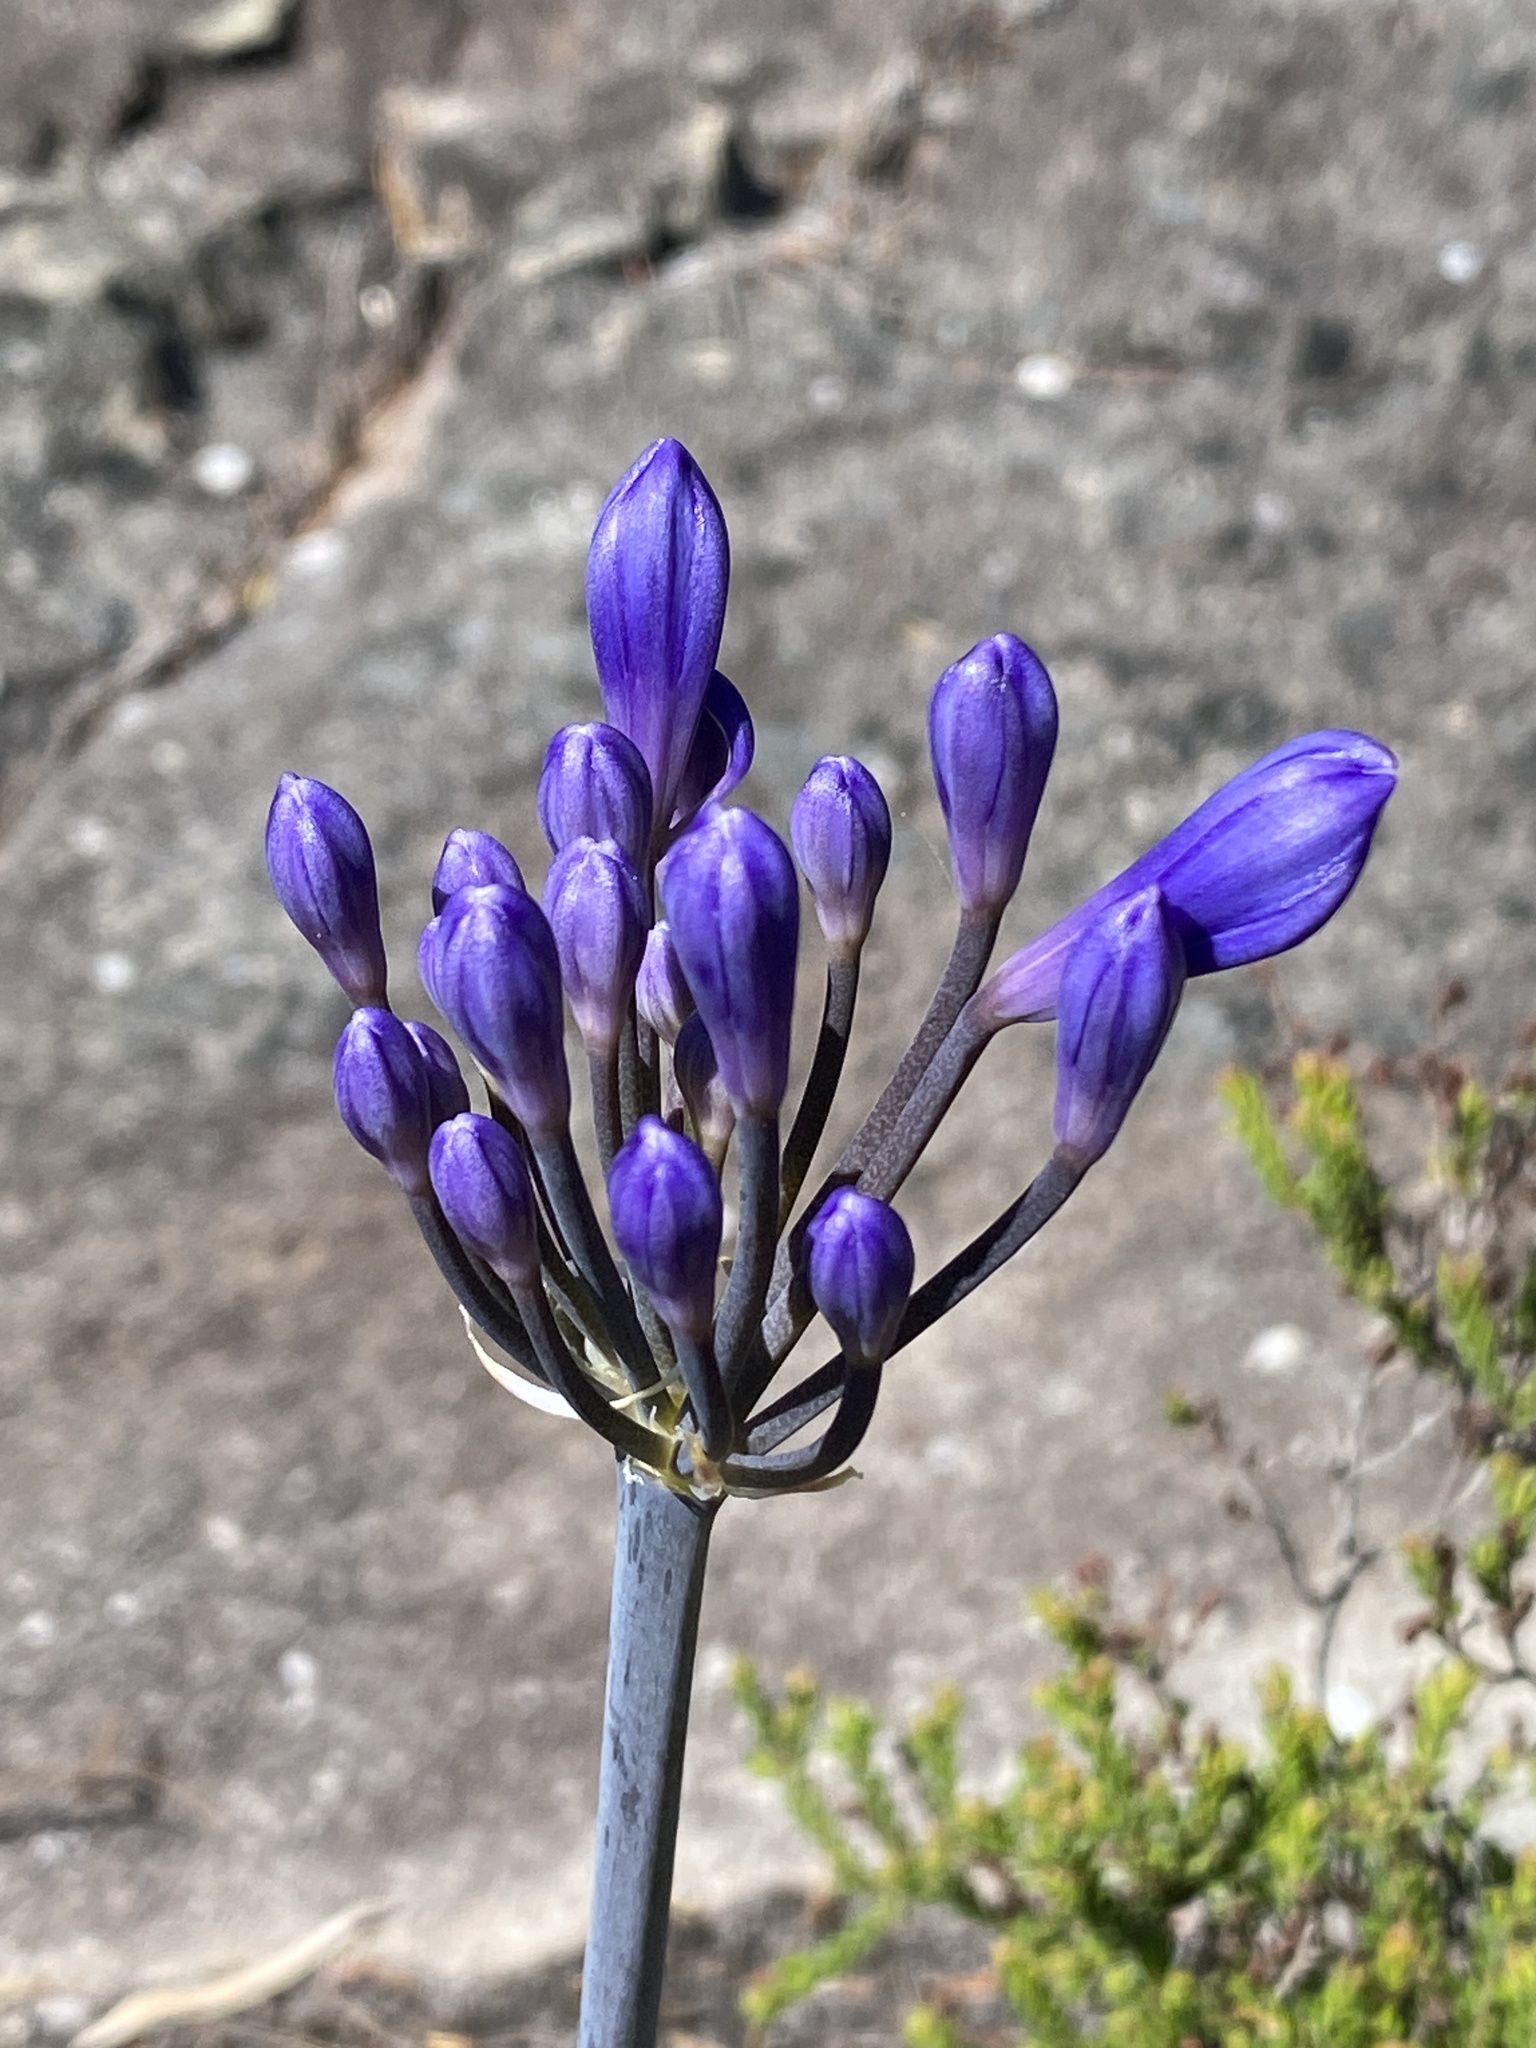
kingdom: Plantae
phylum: Tracheophyta
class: Liliopsida
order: Asparagales
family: Amaryllidaceae
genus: Agapanthus
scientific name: Agapanthus africanus
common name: Lily-of-the-nile
